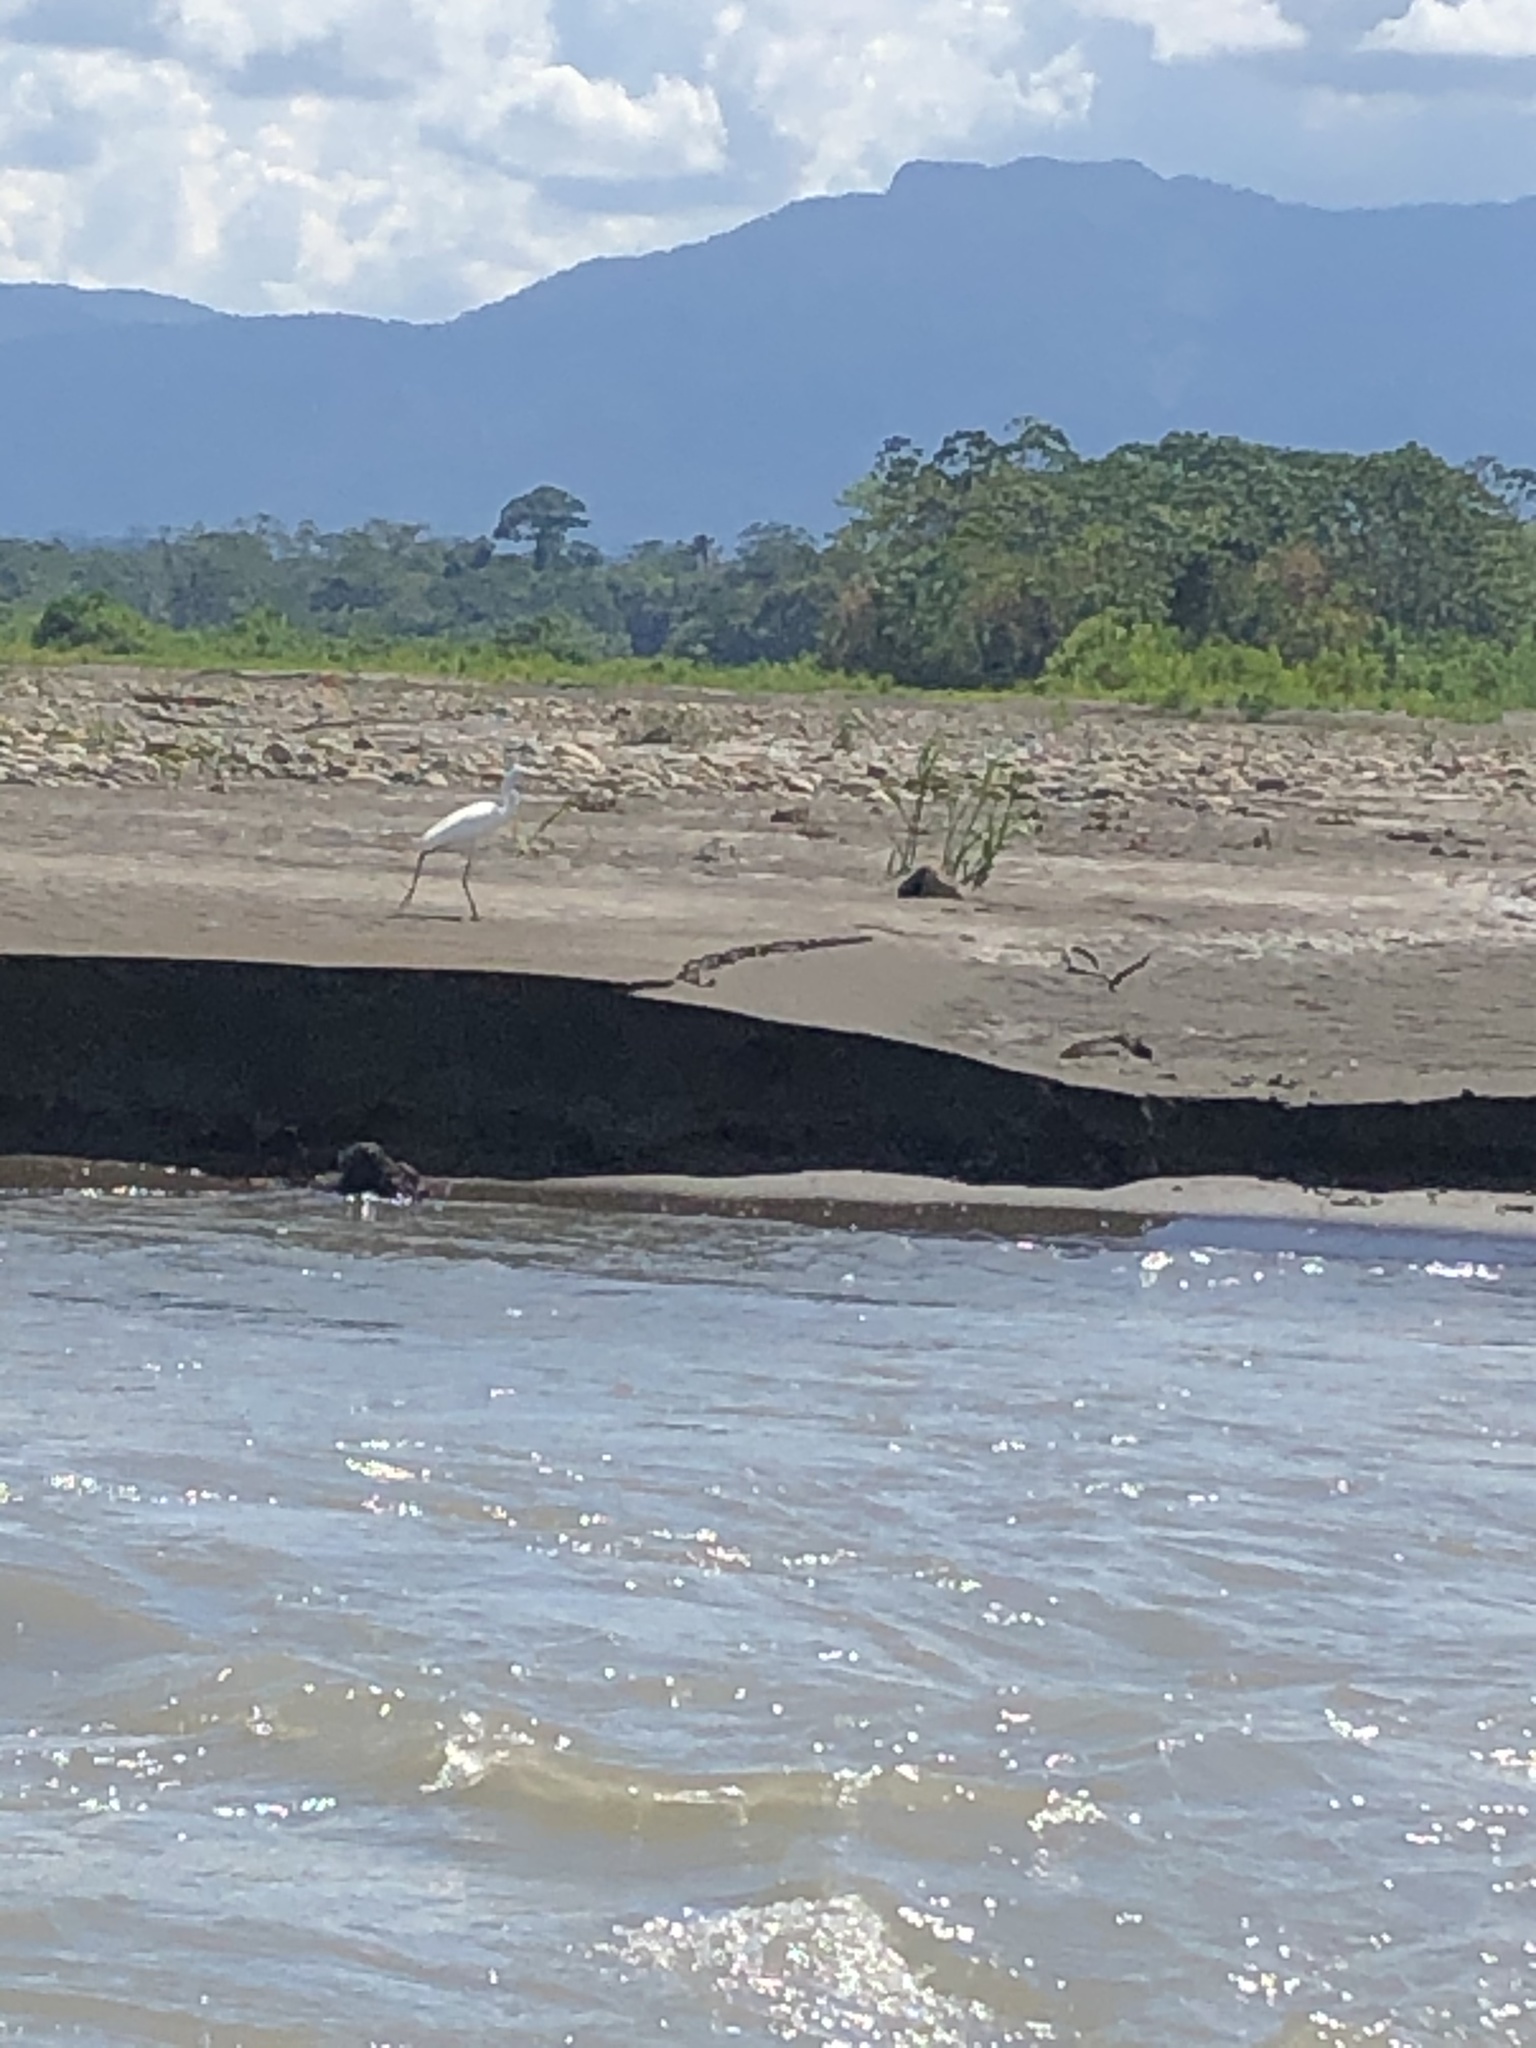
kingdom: Animalia
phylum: Chordata
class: Aves
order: Pelecaniformes
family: Ardeidae
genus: Ardea
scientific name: Ardea alba
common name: Great egret
